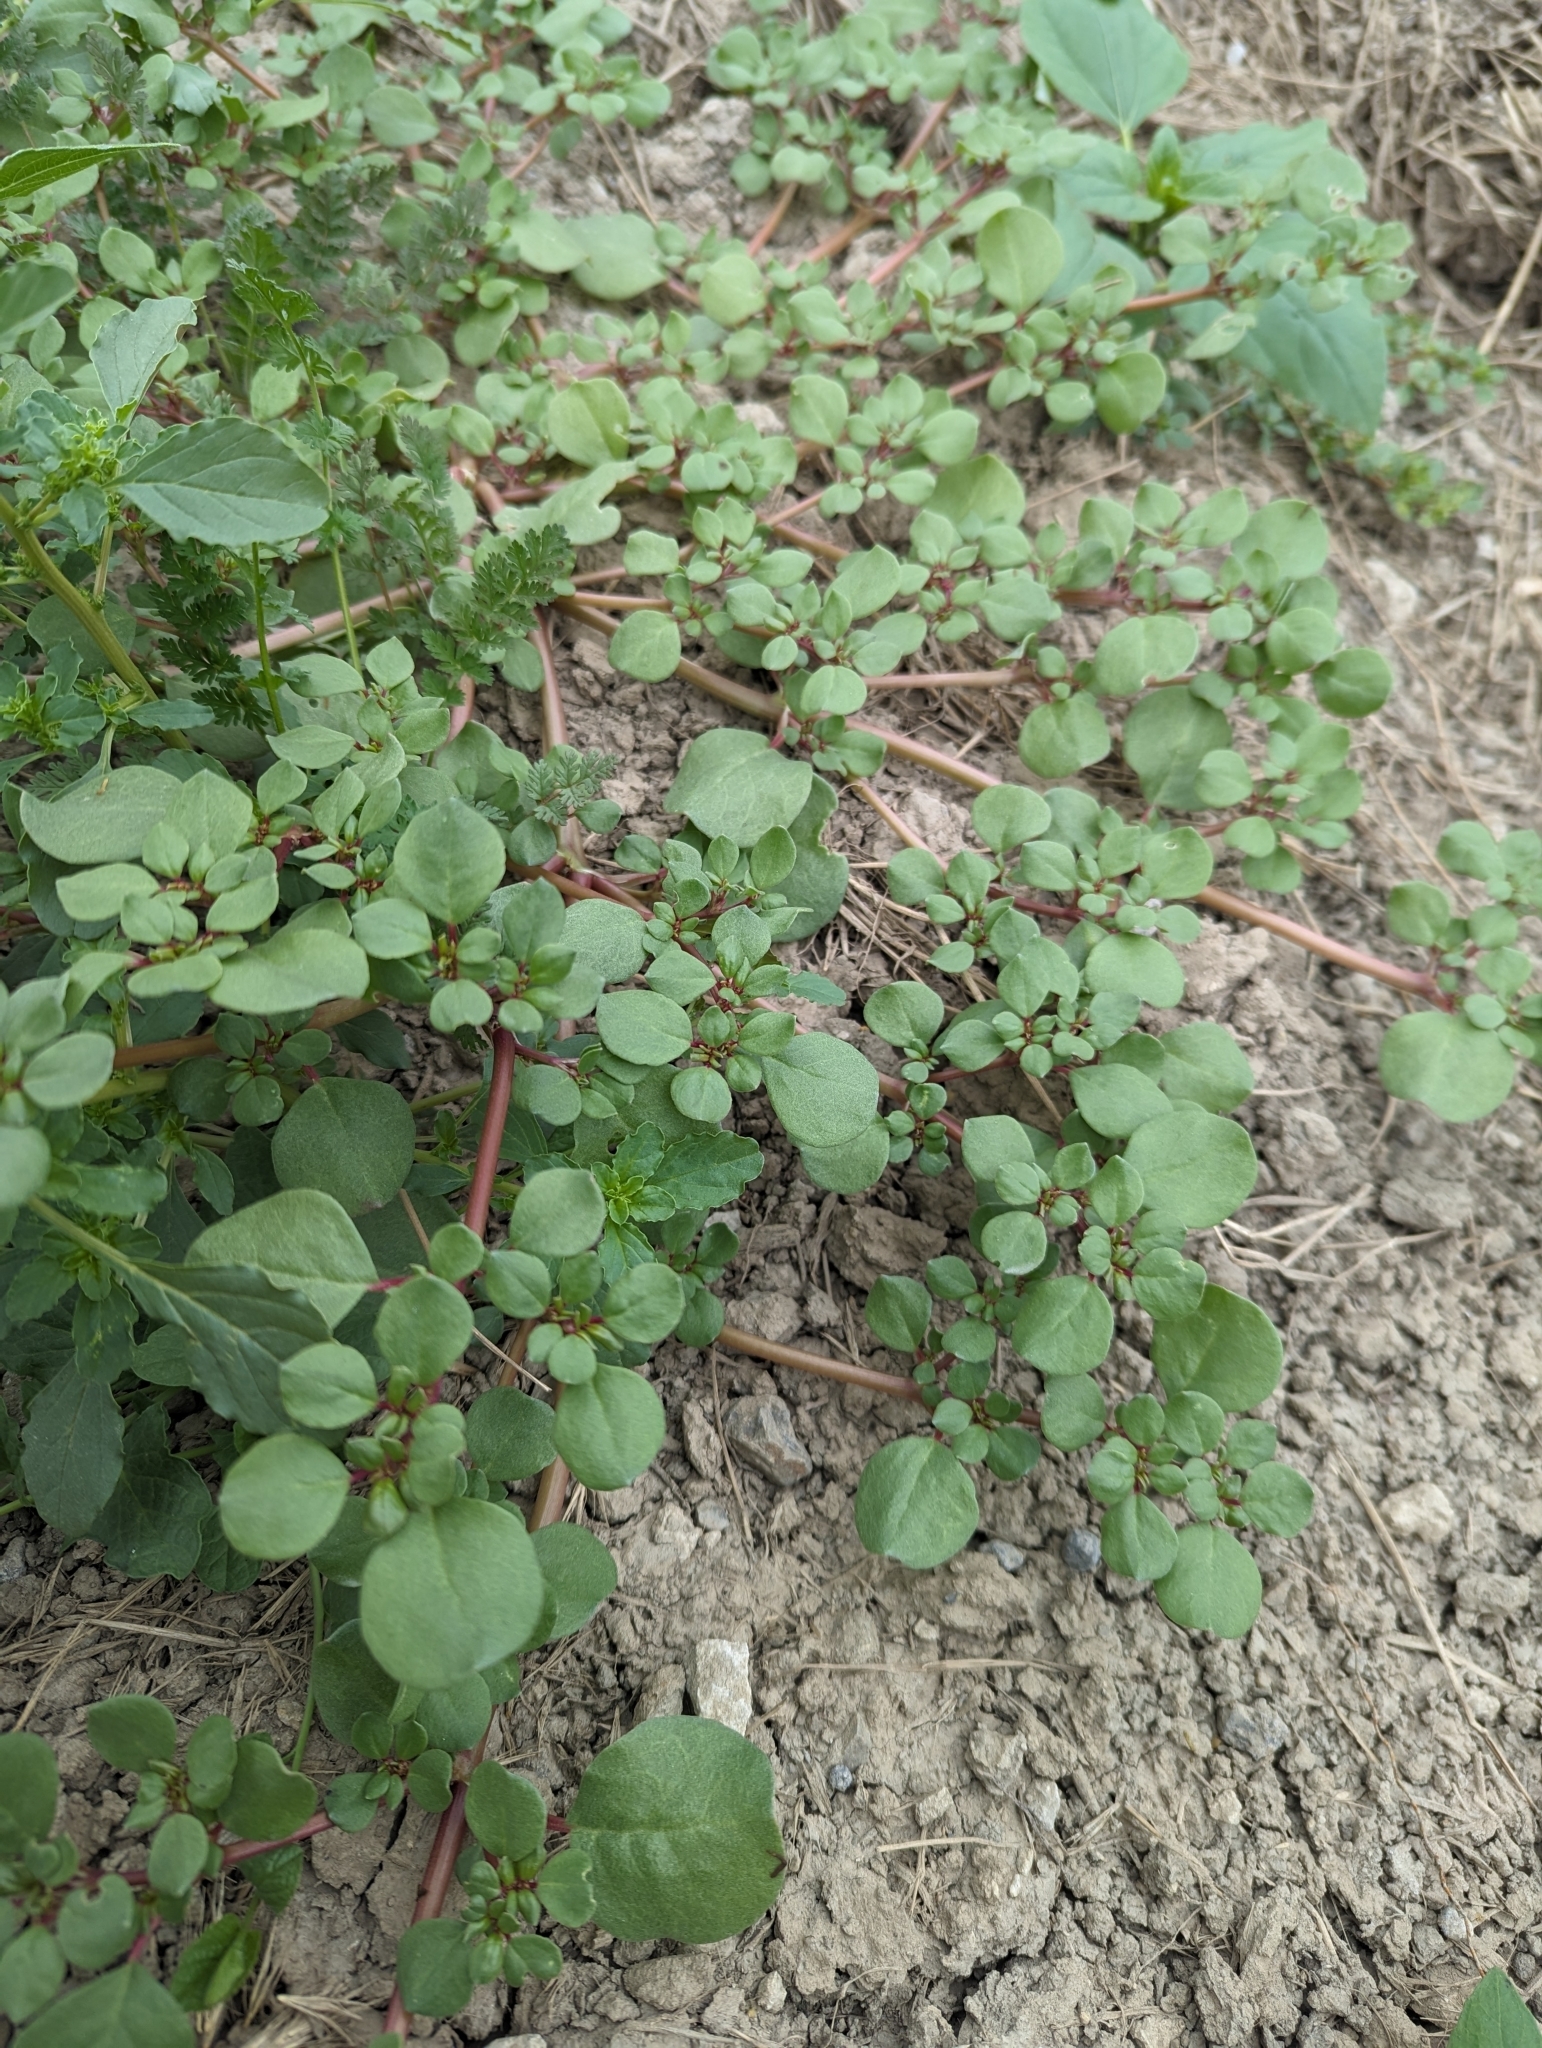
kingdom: Plantae
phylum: Tracheophyta
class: Magnoliopsida
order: Caryophyllales
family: Aizoaceae
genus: Trianthema
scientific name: Trianthema portulacastrum
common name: Desert horsepurslane
